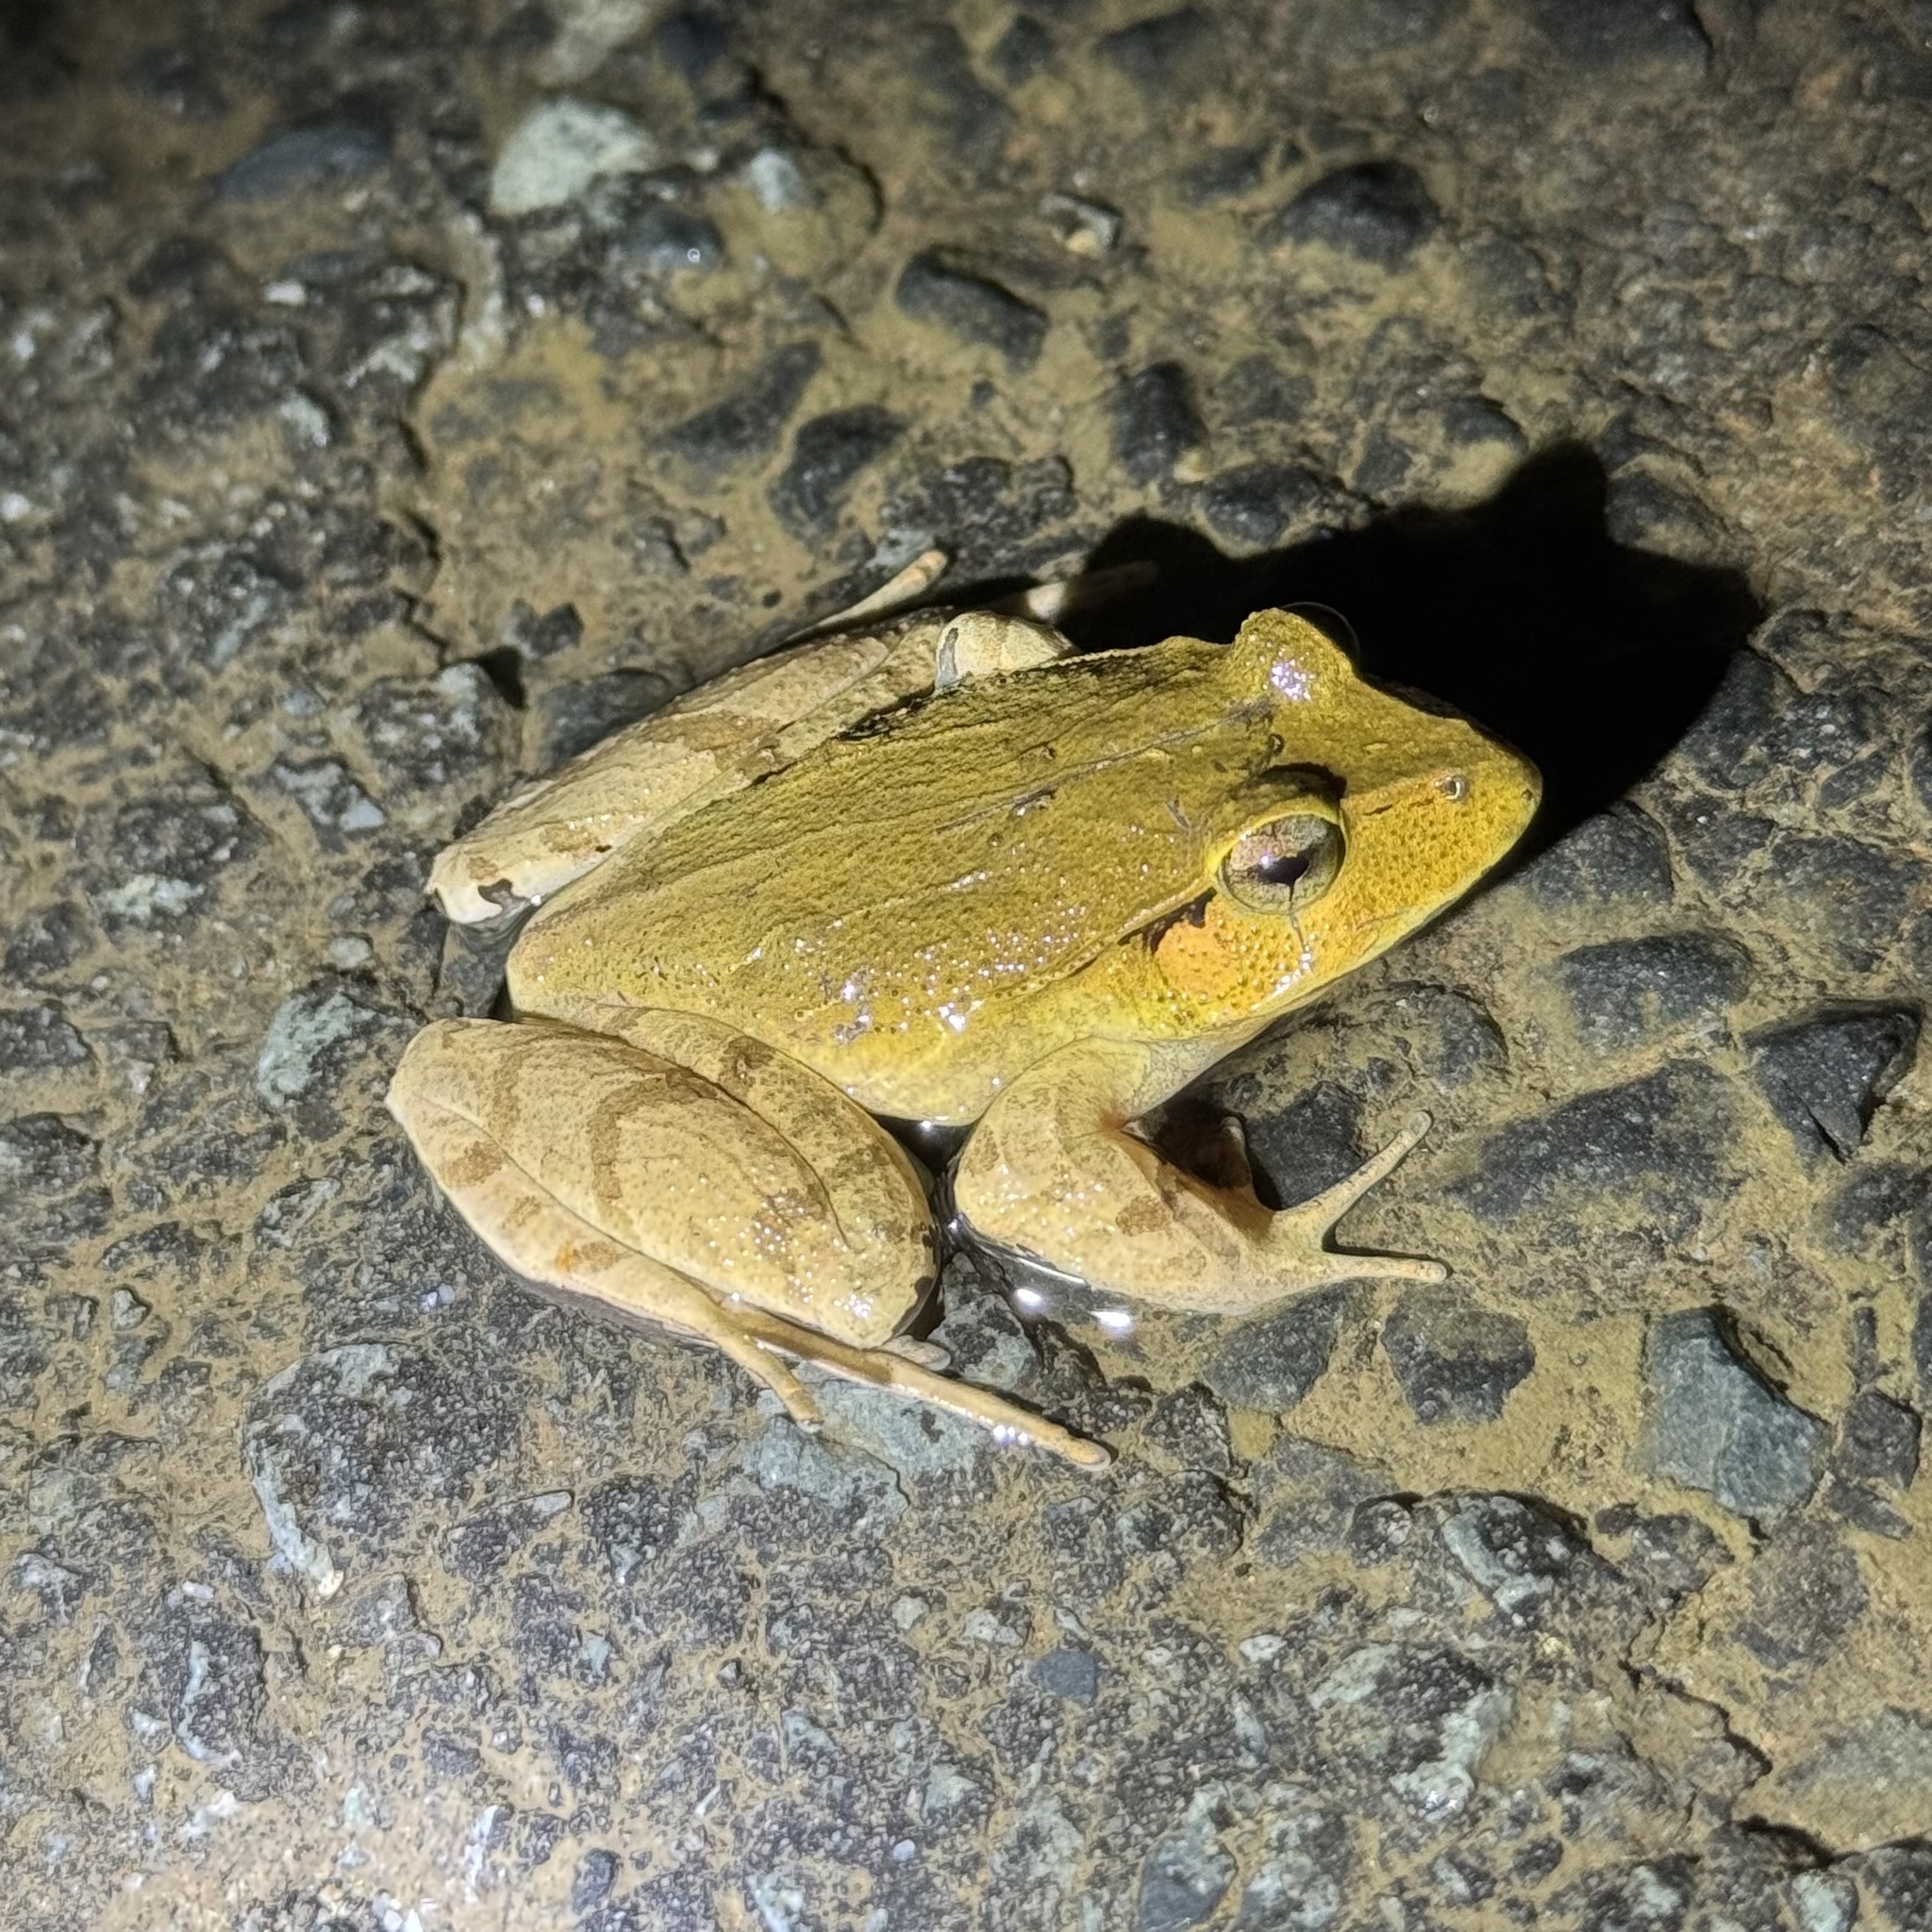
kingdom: Animalia
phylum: Chordata
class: Amphibia
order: Anura
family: Limnodynastidae
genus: Platyplectrum
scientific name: Platyplectrum
